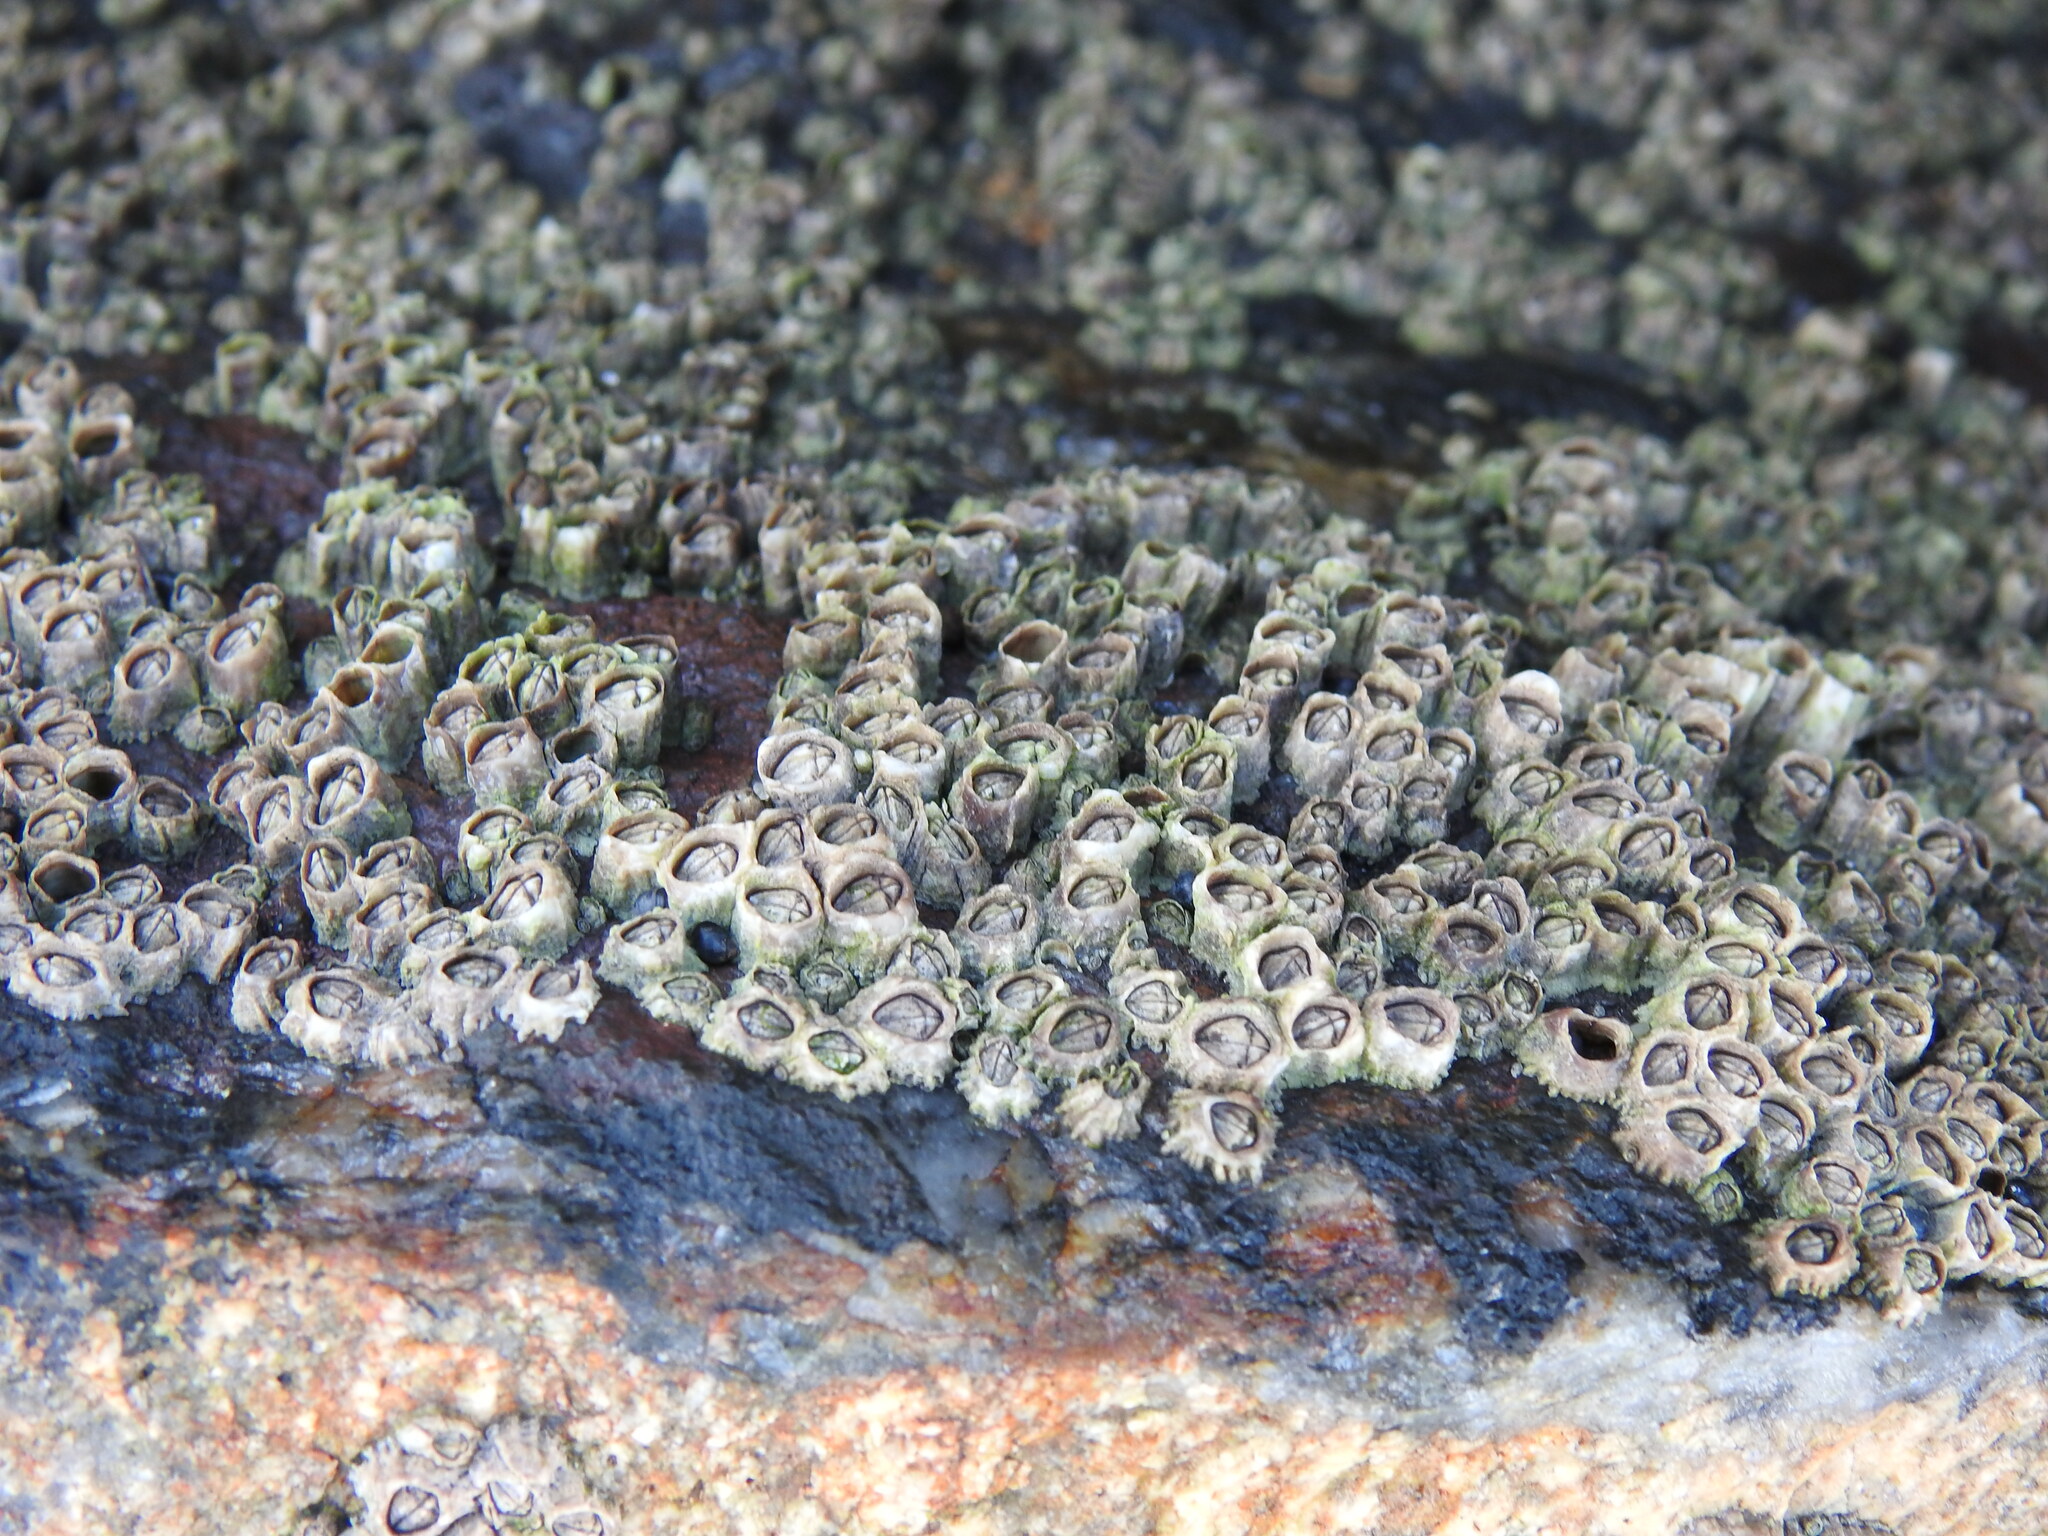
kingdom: Animalia
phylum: Arthropoda
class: Maxillopoda
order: Sessilia
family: Chthamalidae
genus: Chthamalus
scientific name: Chthamalus montagui
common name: Montagu's stellate barnacle
